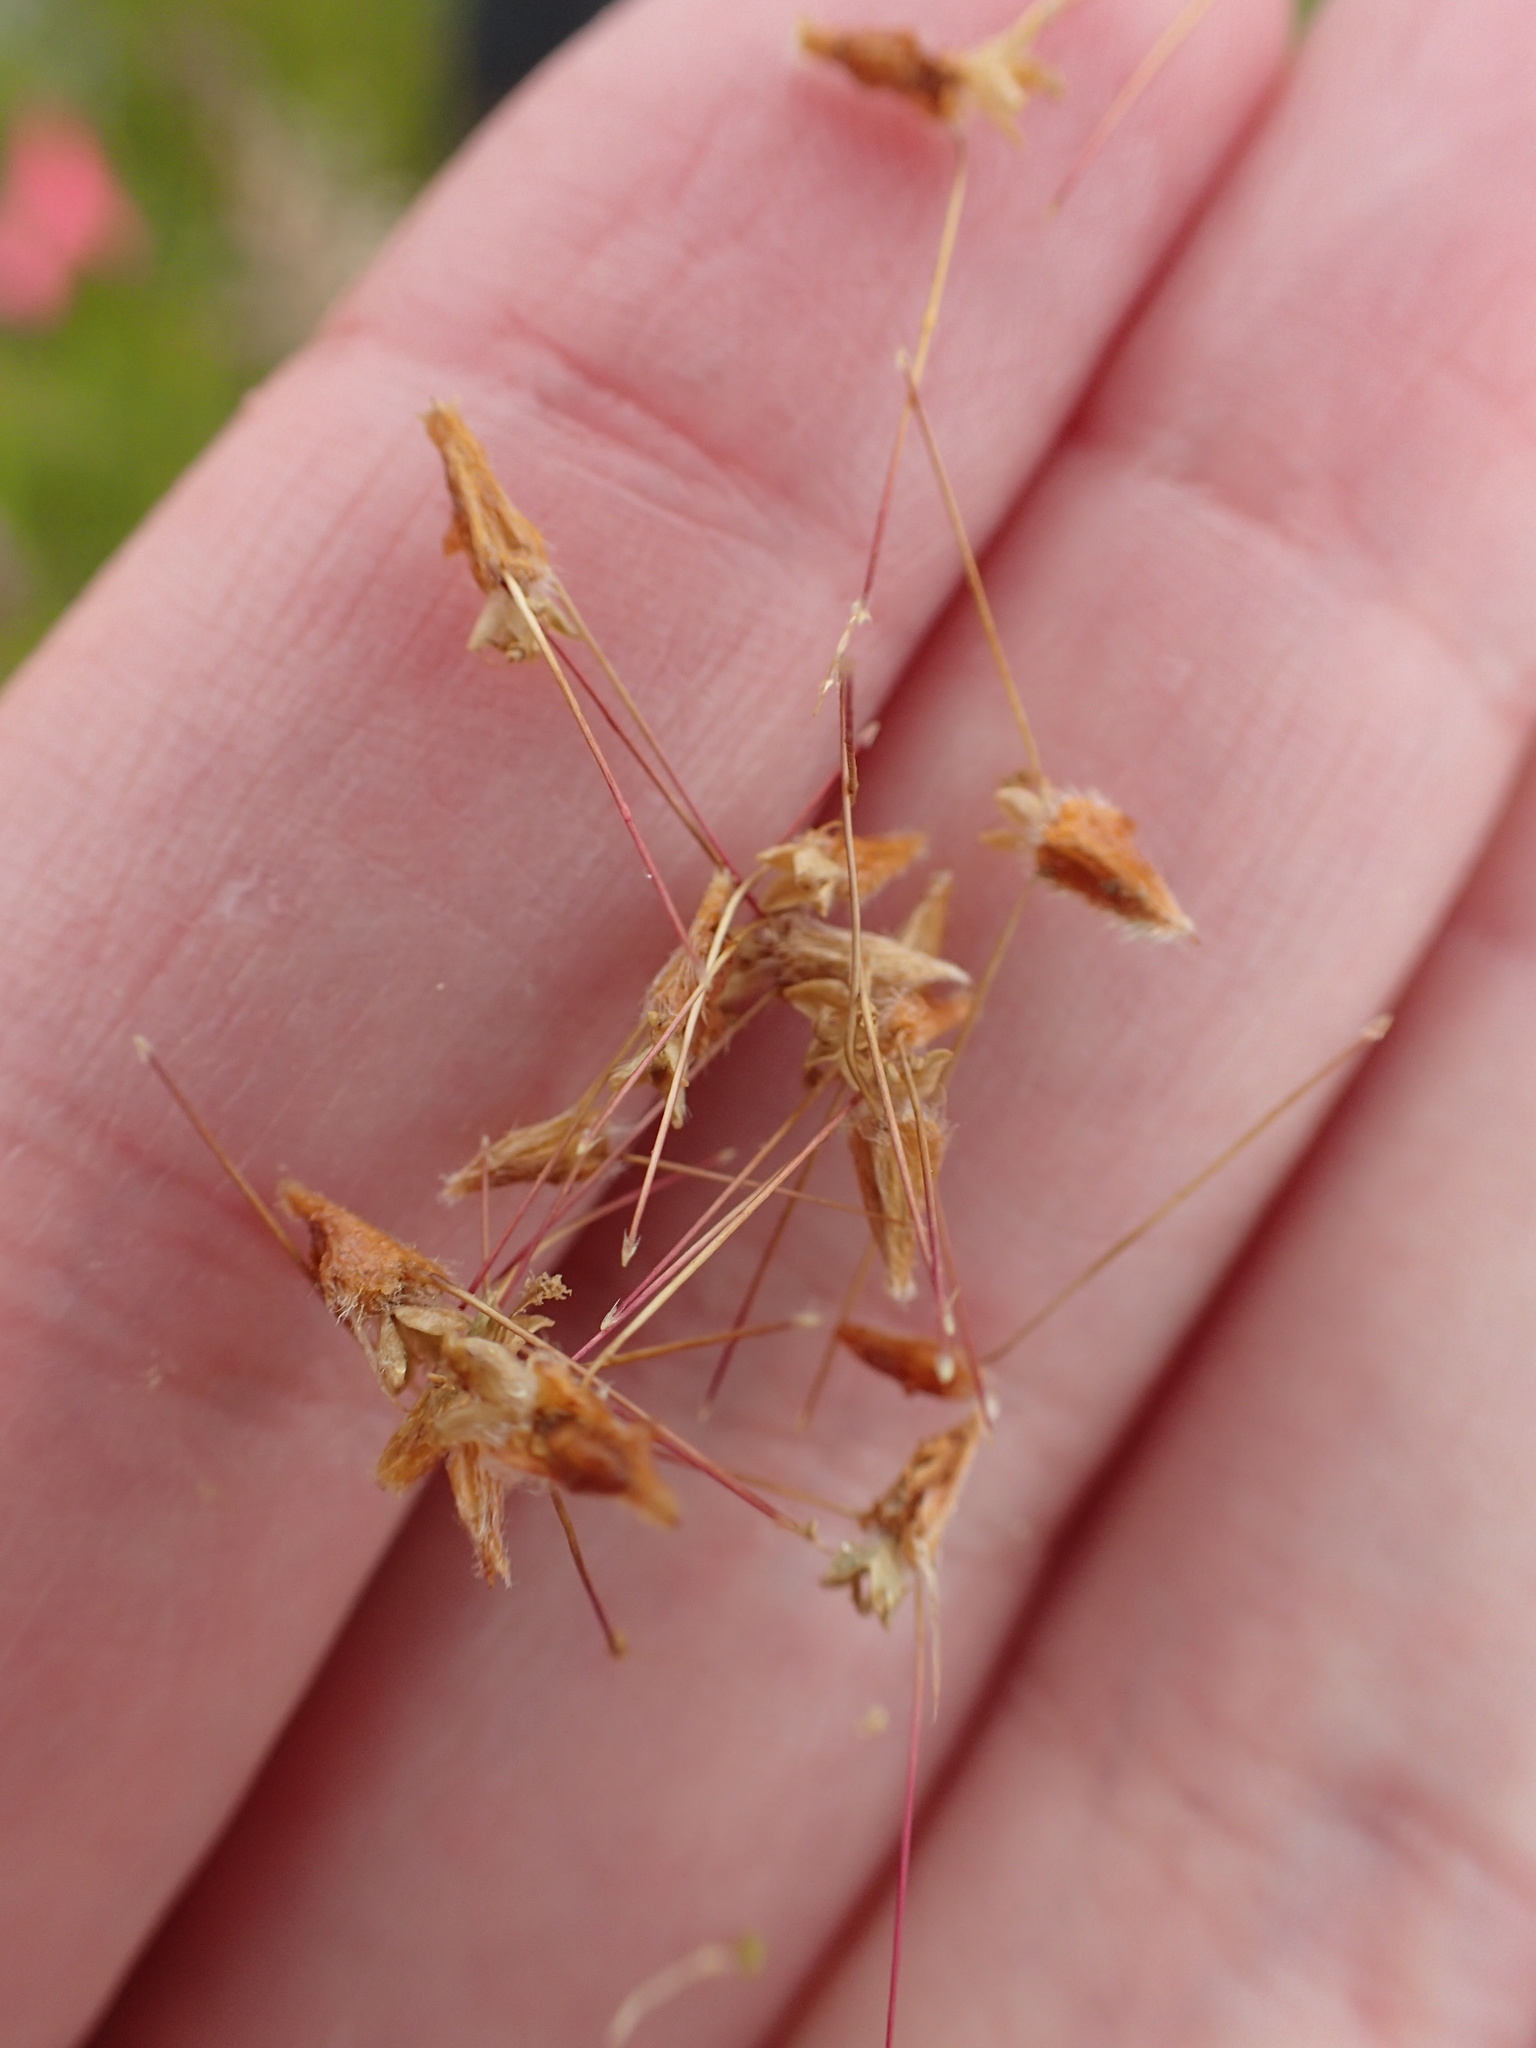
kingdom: Plantae
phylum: Tracheophyta
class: Magnoliopsida
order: Rosales
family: Rosaceae
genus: Acaena
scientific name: Acaena novae-zelandiae
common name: Pirri-pirri-bur
